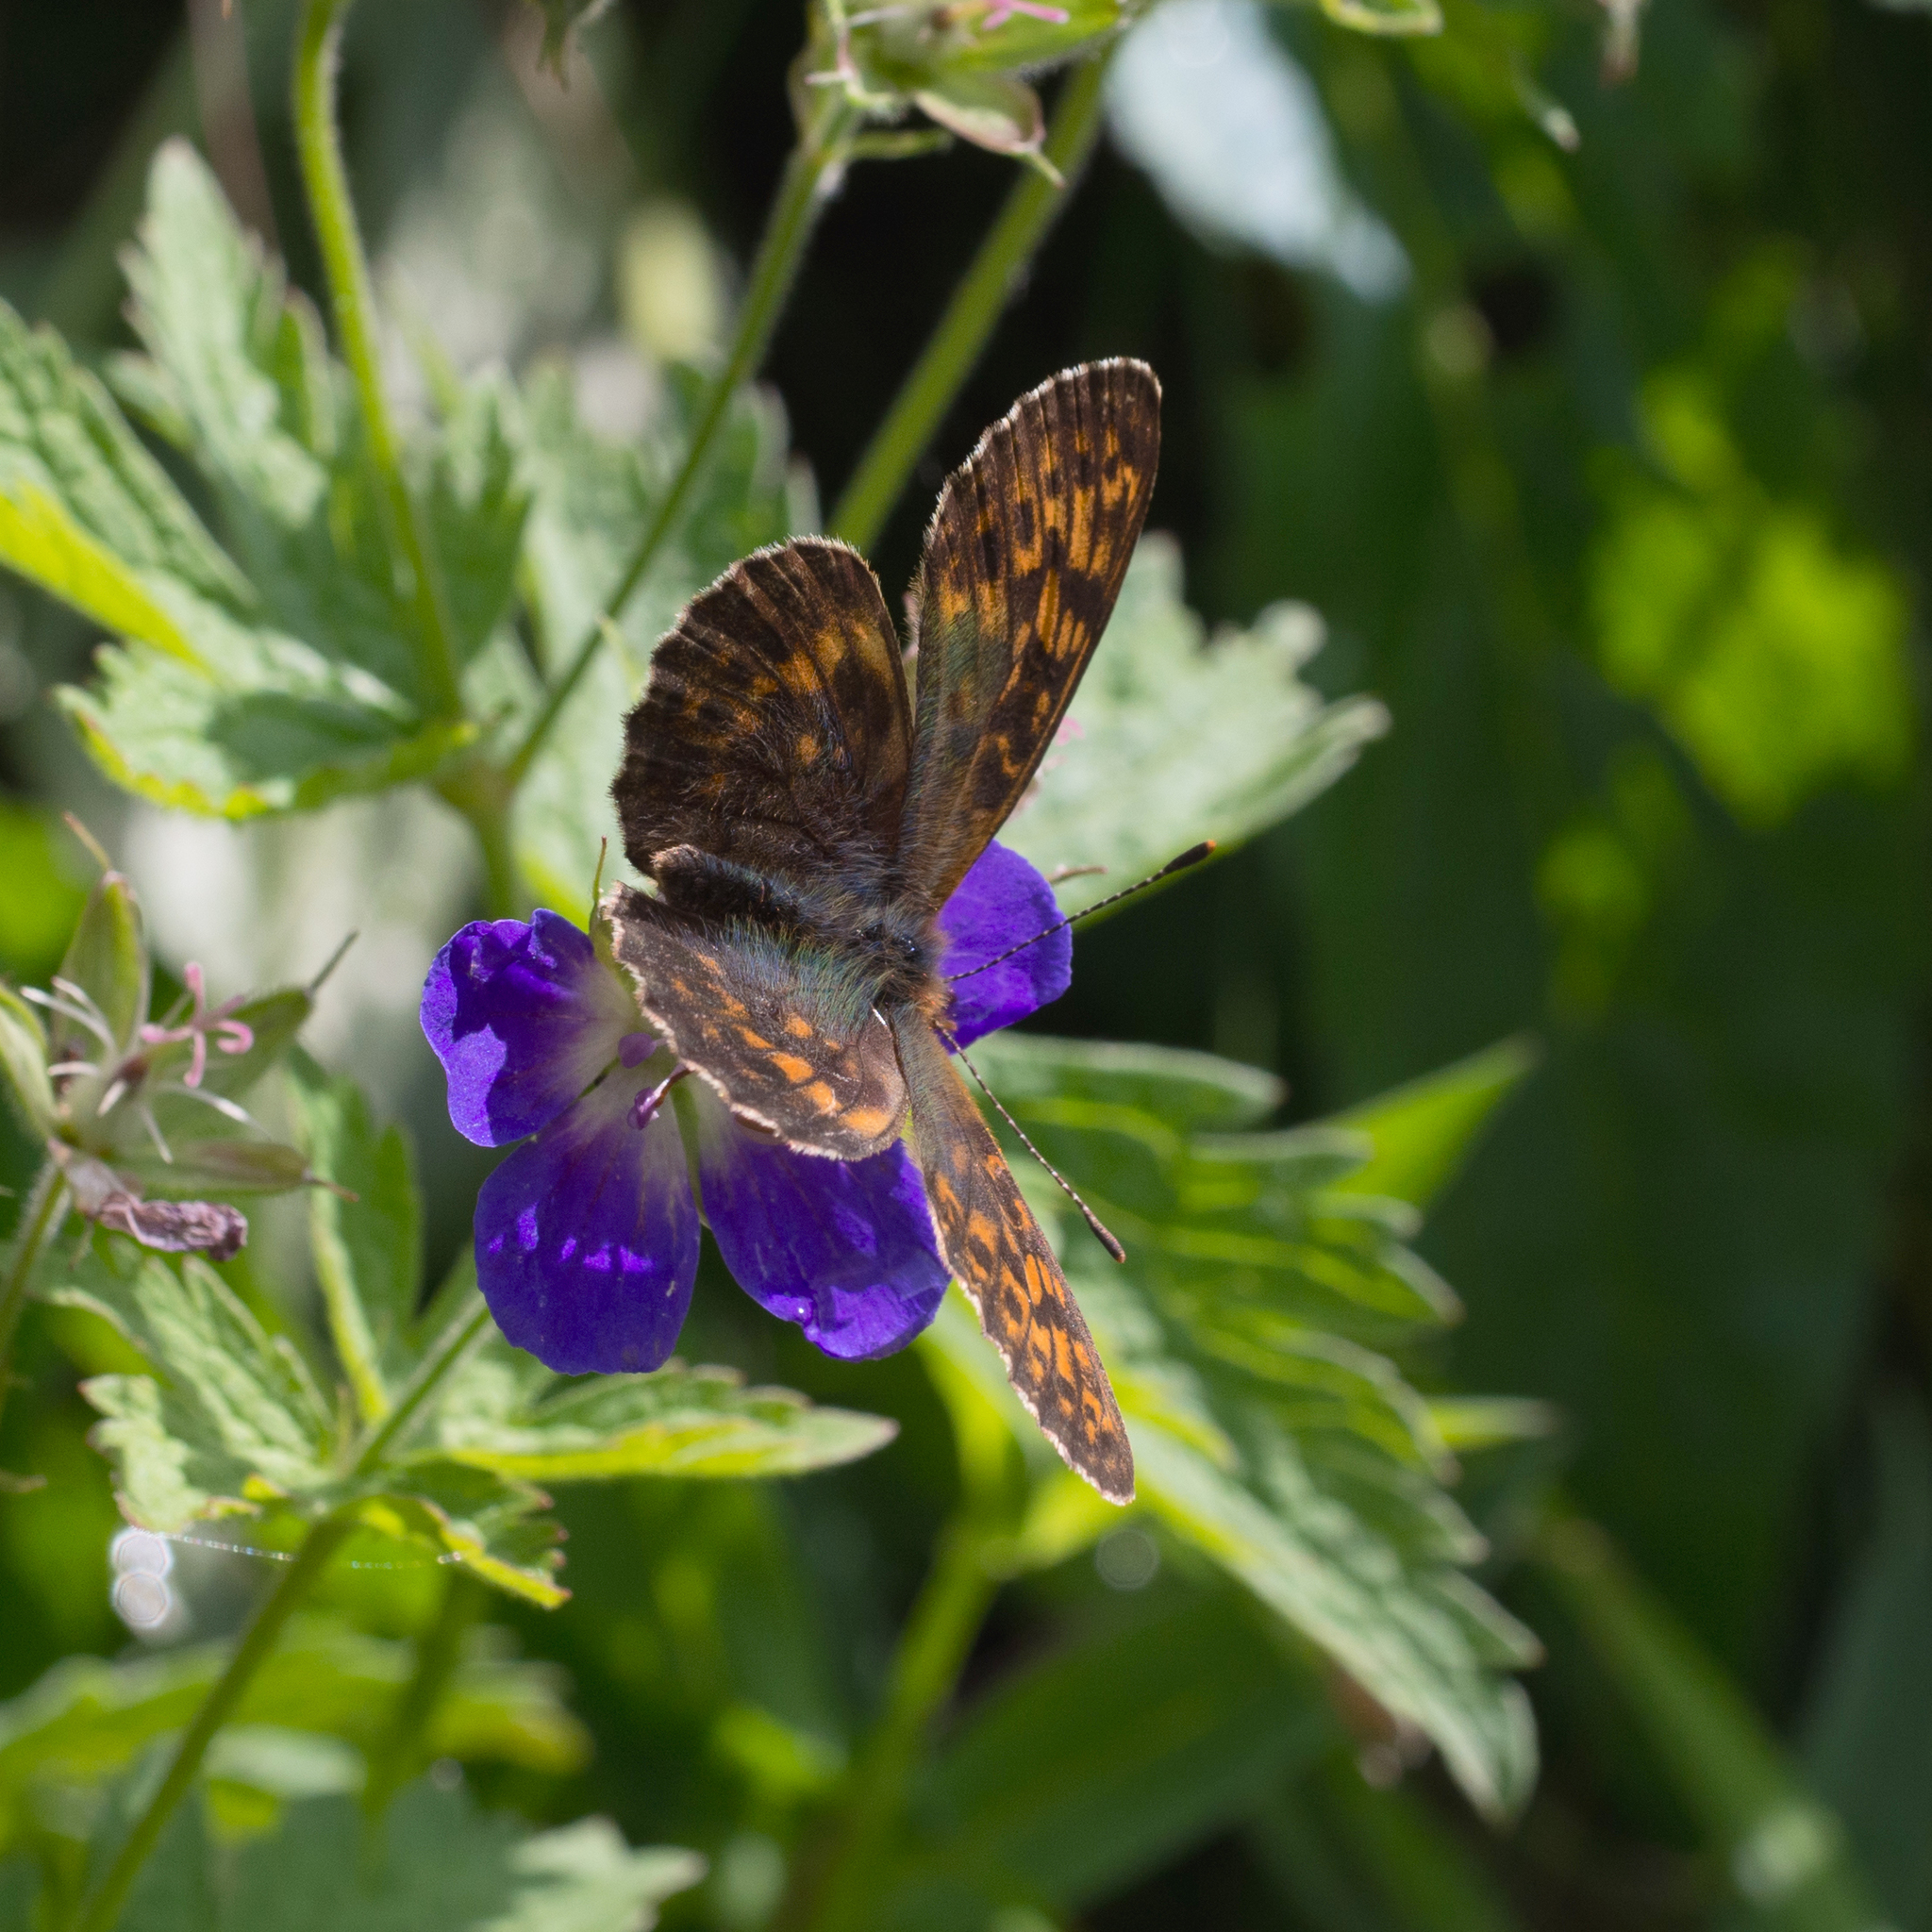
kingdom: Animalia
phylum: Arthropoda
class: Insecta
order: Lepidoptera
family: Nymphalidae
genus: Boloria
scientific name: Boloria thore
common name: Thor's fritillary
